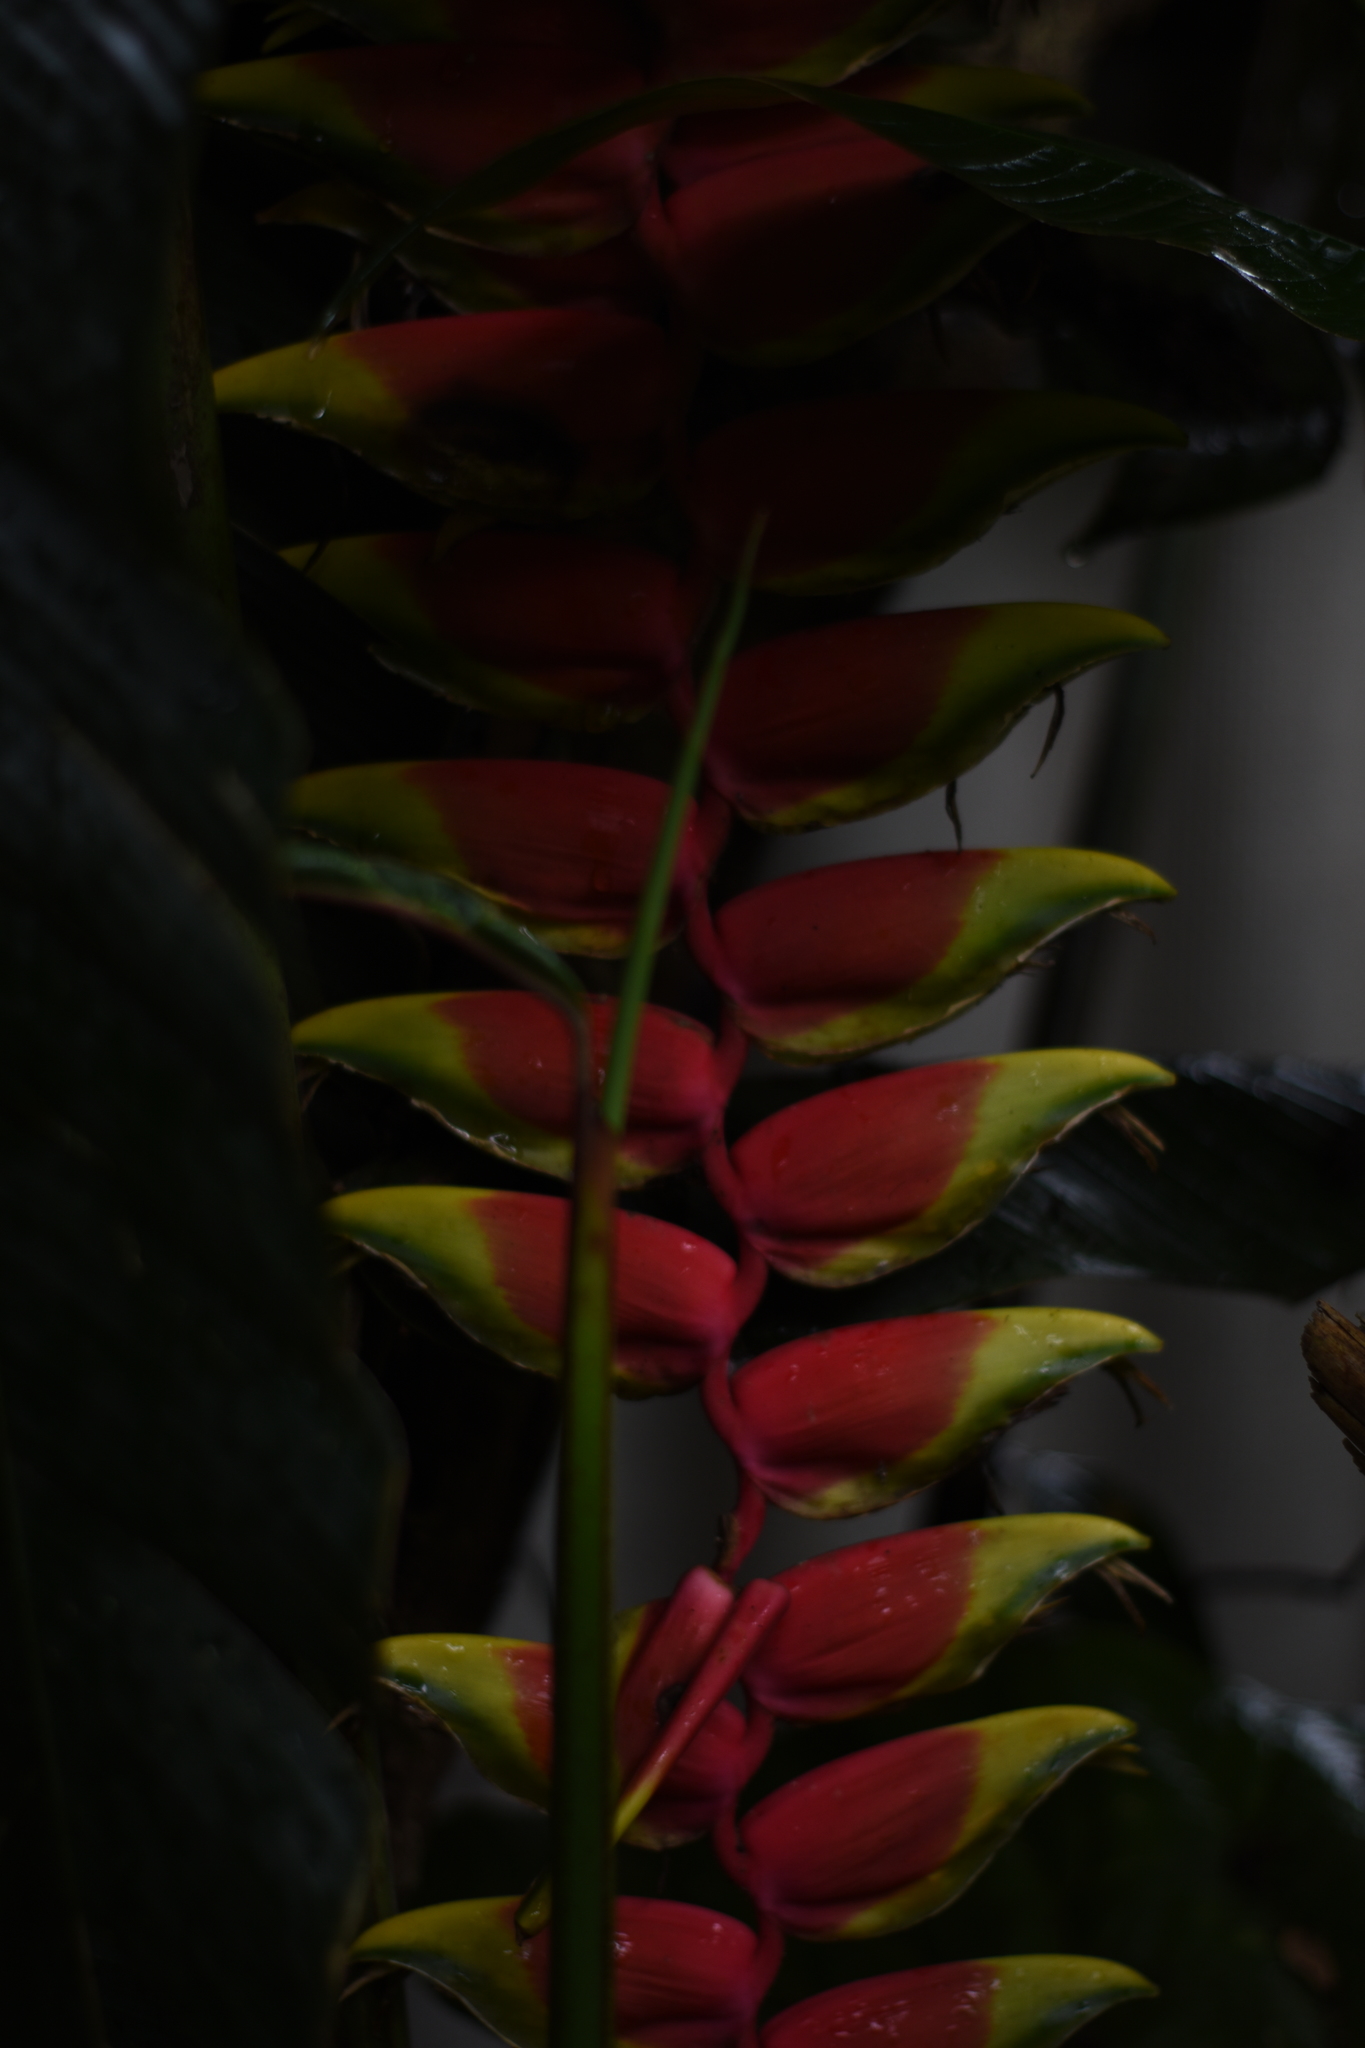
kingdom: Plantae
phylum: Tracheophyta
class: Liliopsida
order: Zingiberales
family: Heliconiaceae
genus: Heliconia
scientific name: Heliconia rostrata
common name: False bird of paradise
